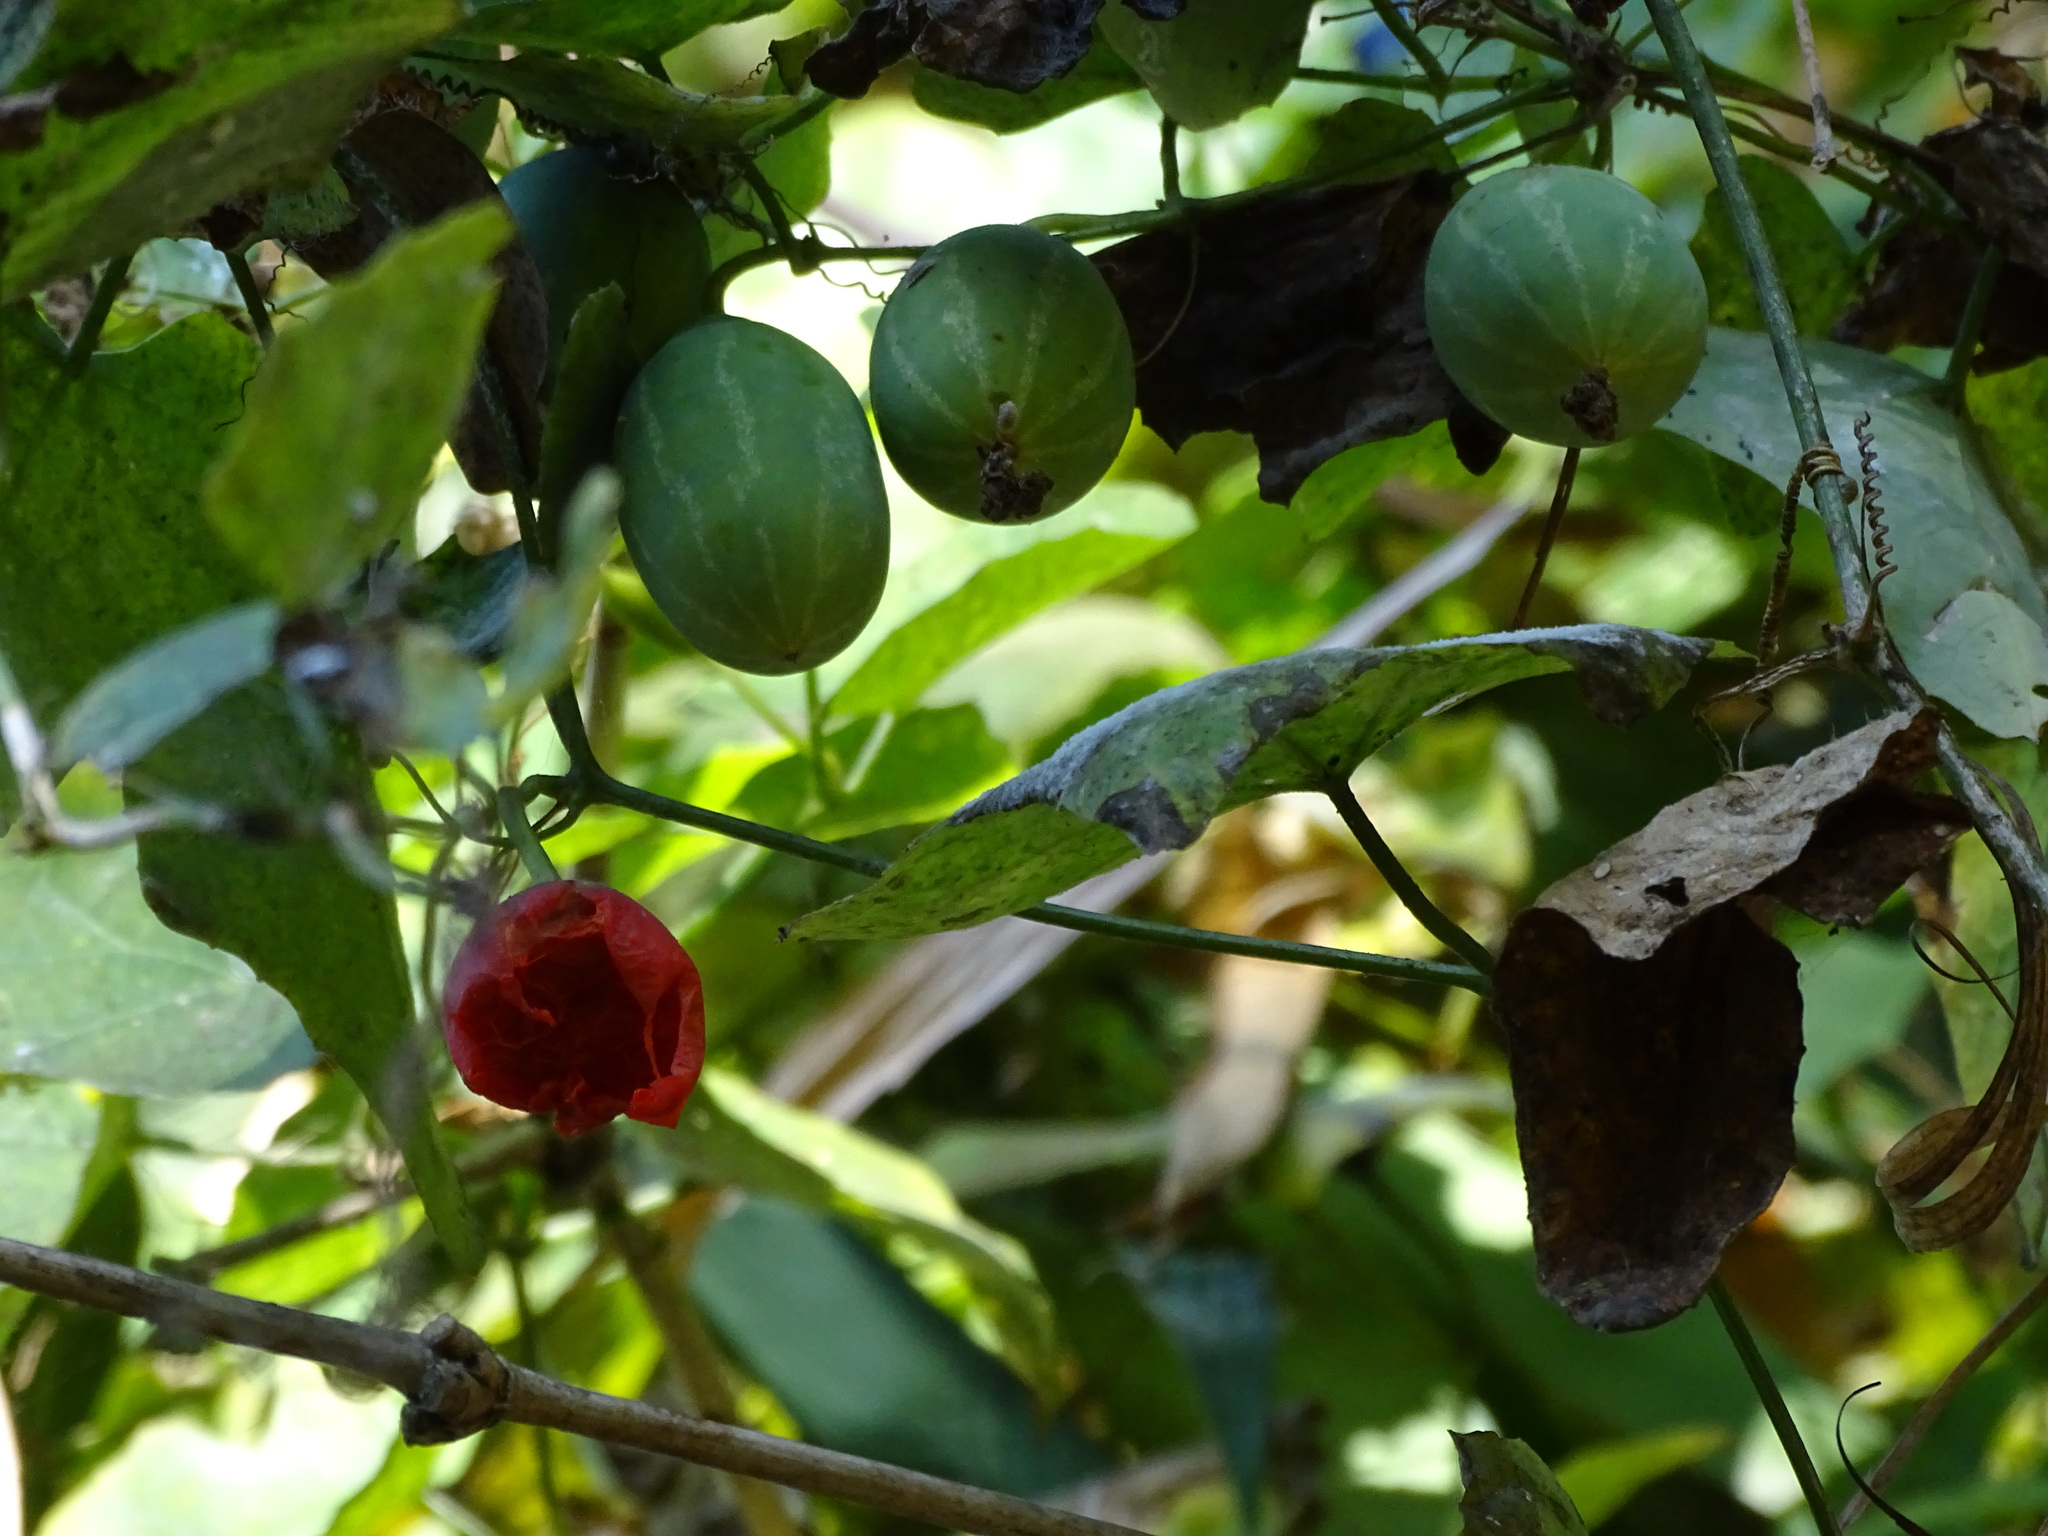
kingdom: Plantae
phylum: Tracheophyta
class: Magnoliopsida
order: Cucurbitales
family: Cucurbitaceae
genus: Coccinia
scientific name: Coccinia grandis
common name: Ivy gourd
